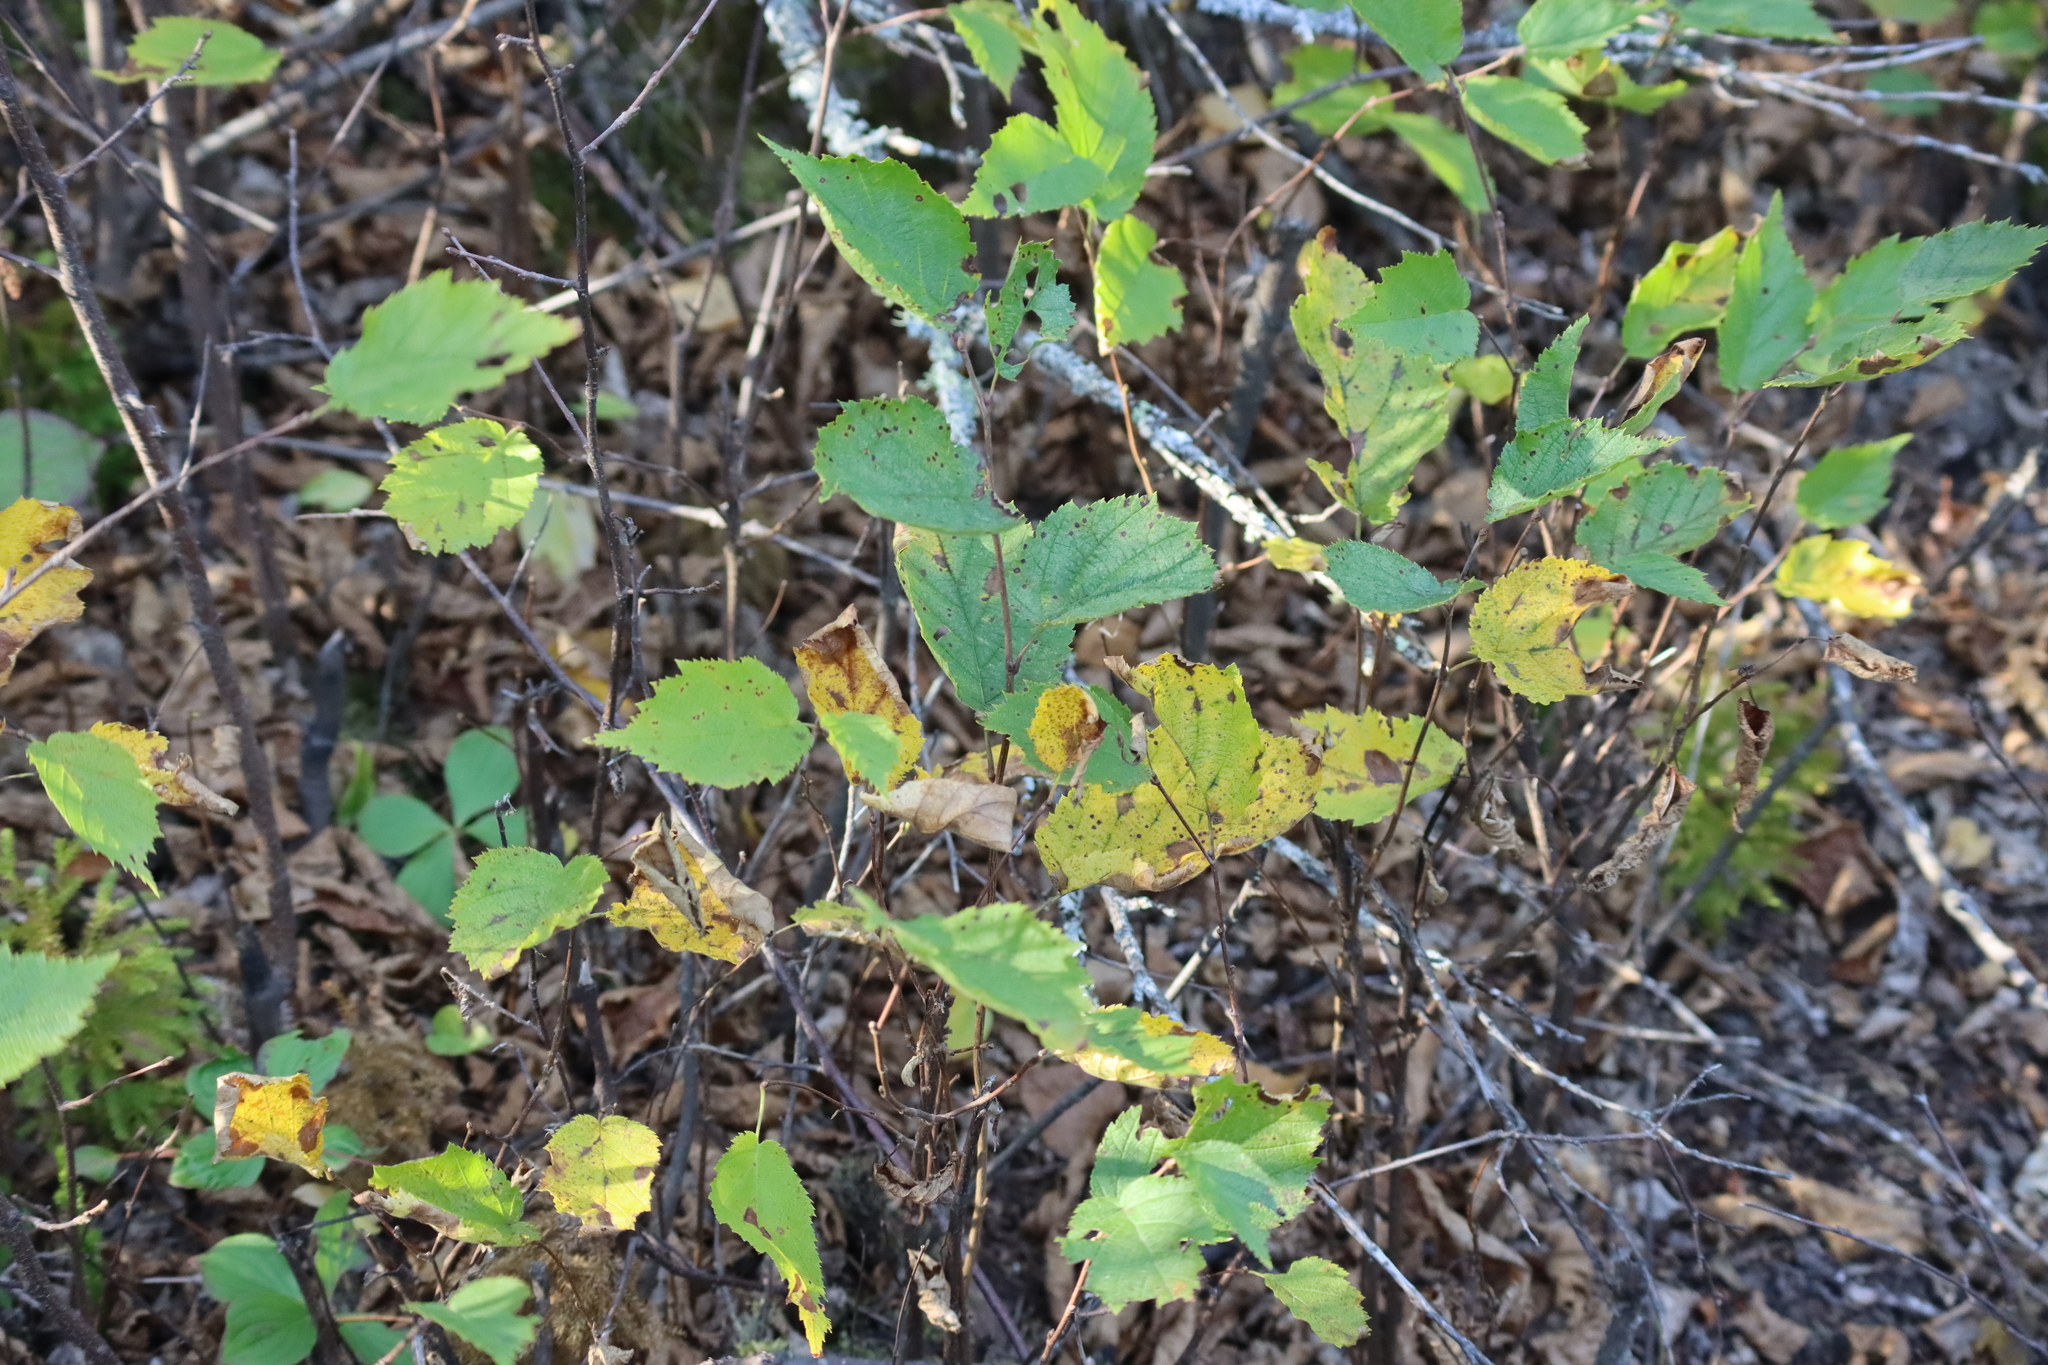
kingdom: Plantae
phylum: Tracheophyta
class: Magnoliopsida
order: Fagales
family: Betulaceae
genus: Corylus
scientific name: Corylus cornuta
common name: Beaked hazel
